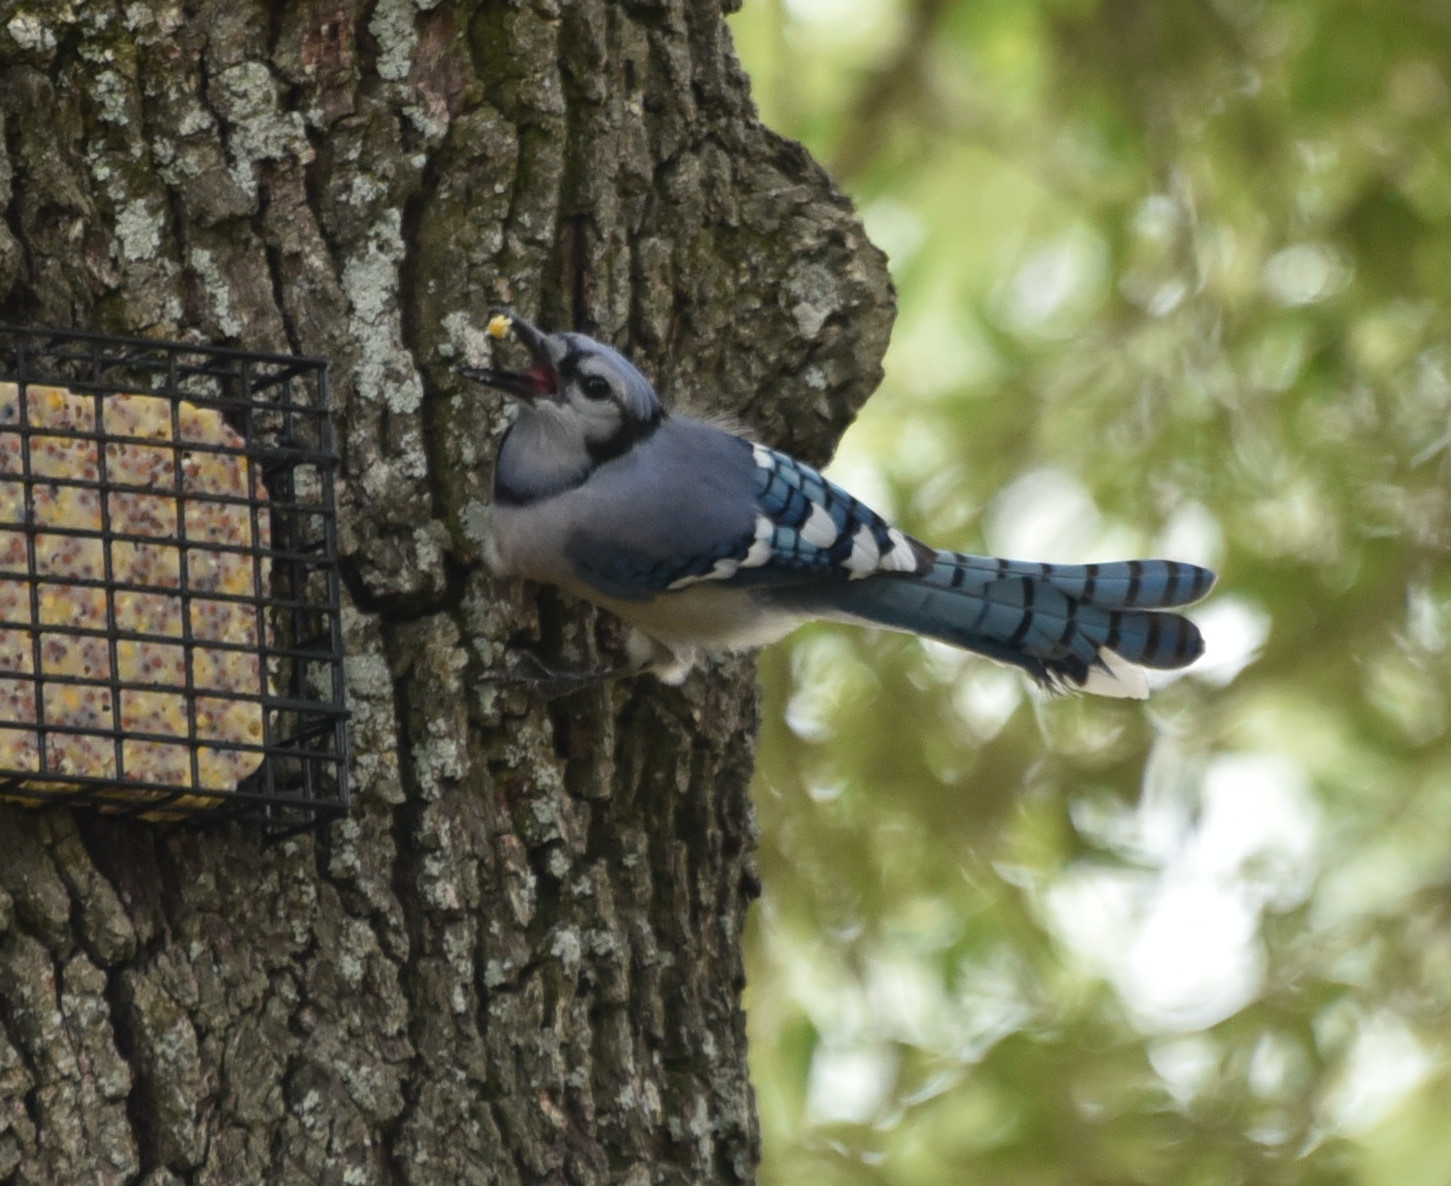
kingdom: Animalia
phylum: Chordata
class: Aves
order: Passeriformes
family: Corvidae
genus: Cyanocitta
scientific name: Cyanocitta cristata
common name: Blue jay
